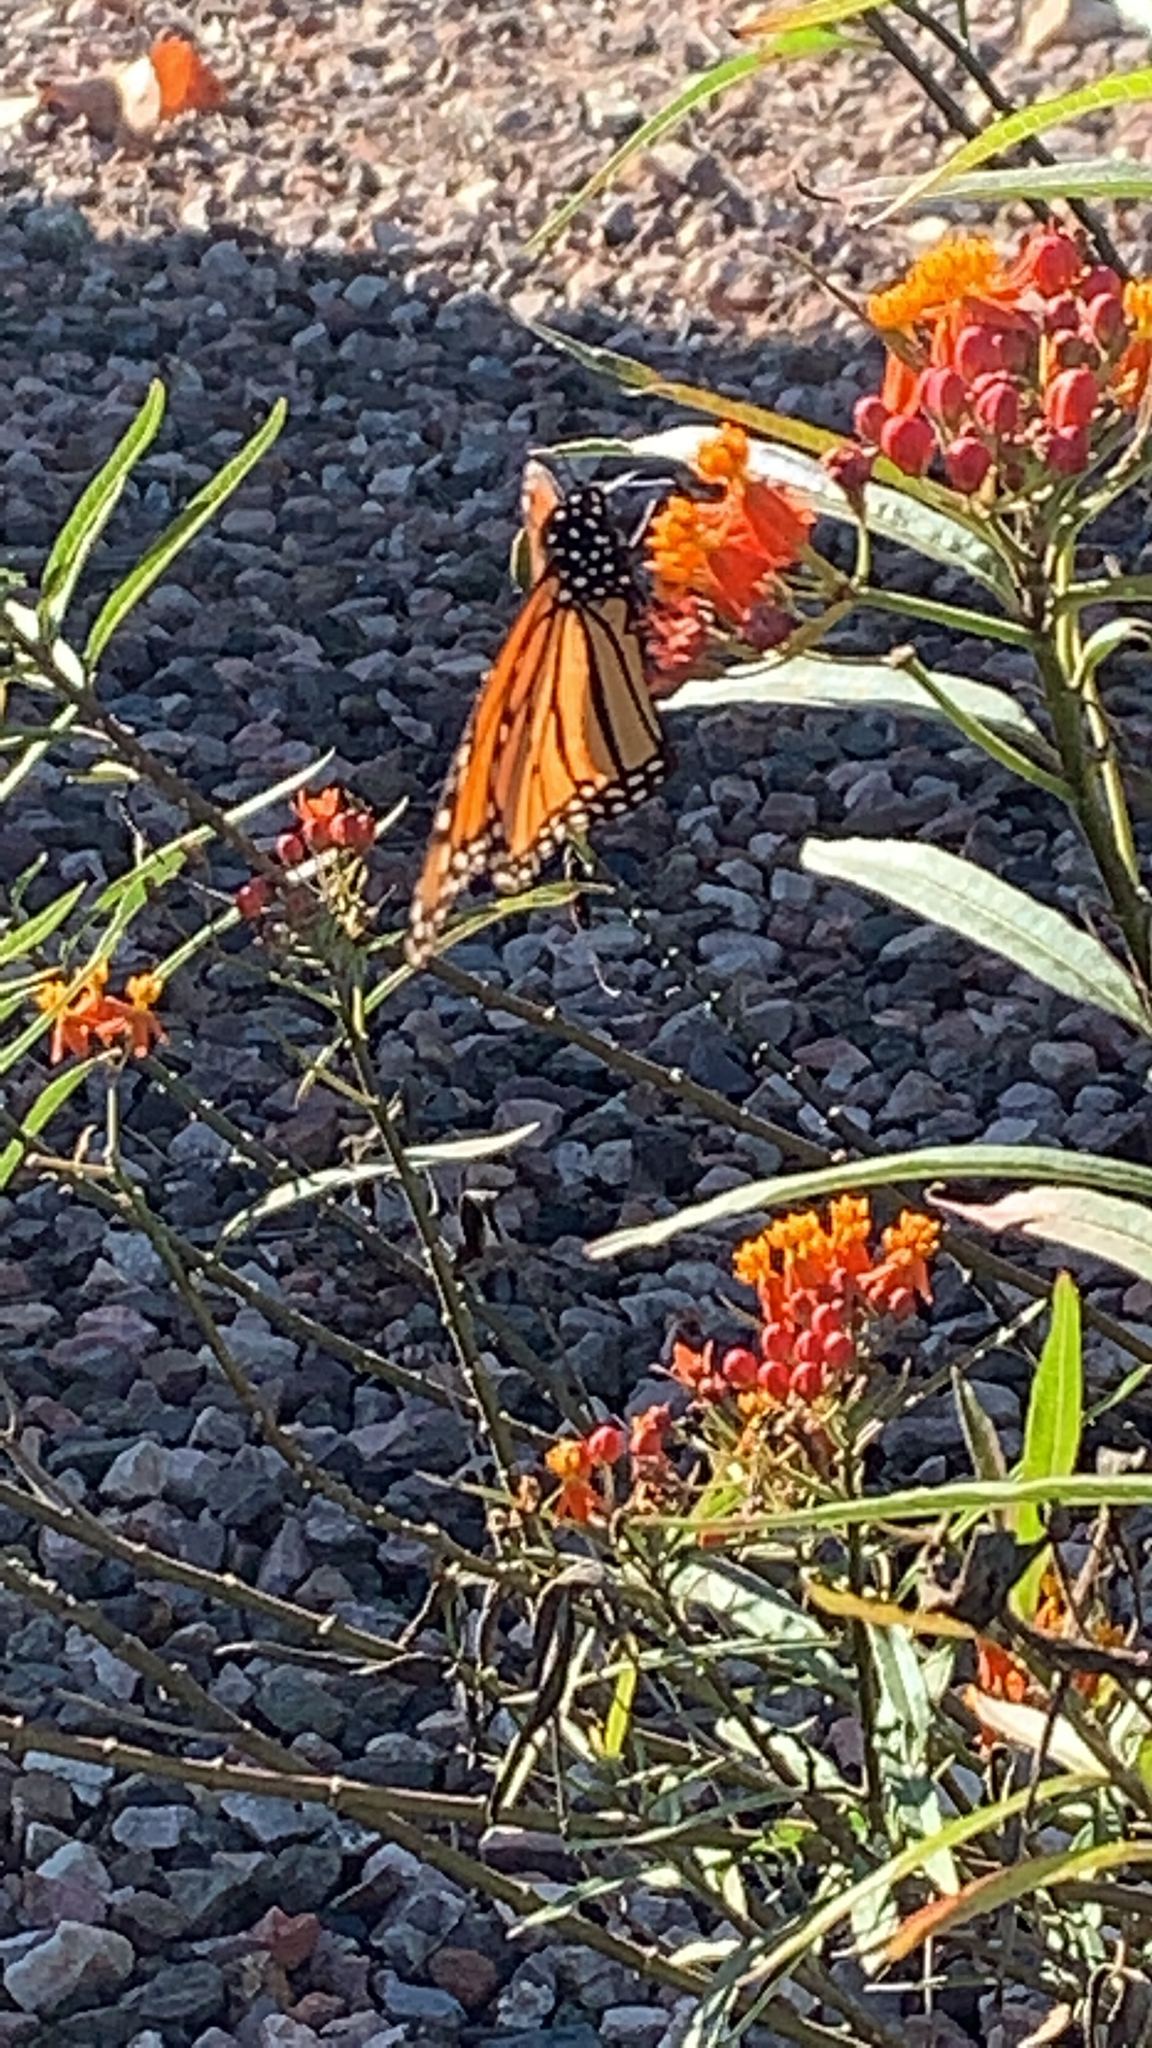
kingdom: Animalia
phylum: Arthropoda
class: Insecta
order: Lepidoptera
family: Nymphalidae
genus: Danaus
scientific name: Danaus plexippus
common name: Monarch
